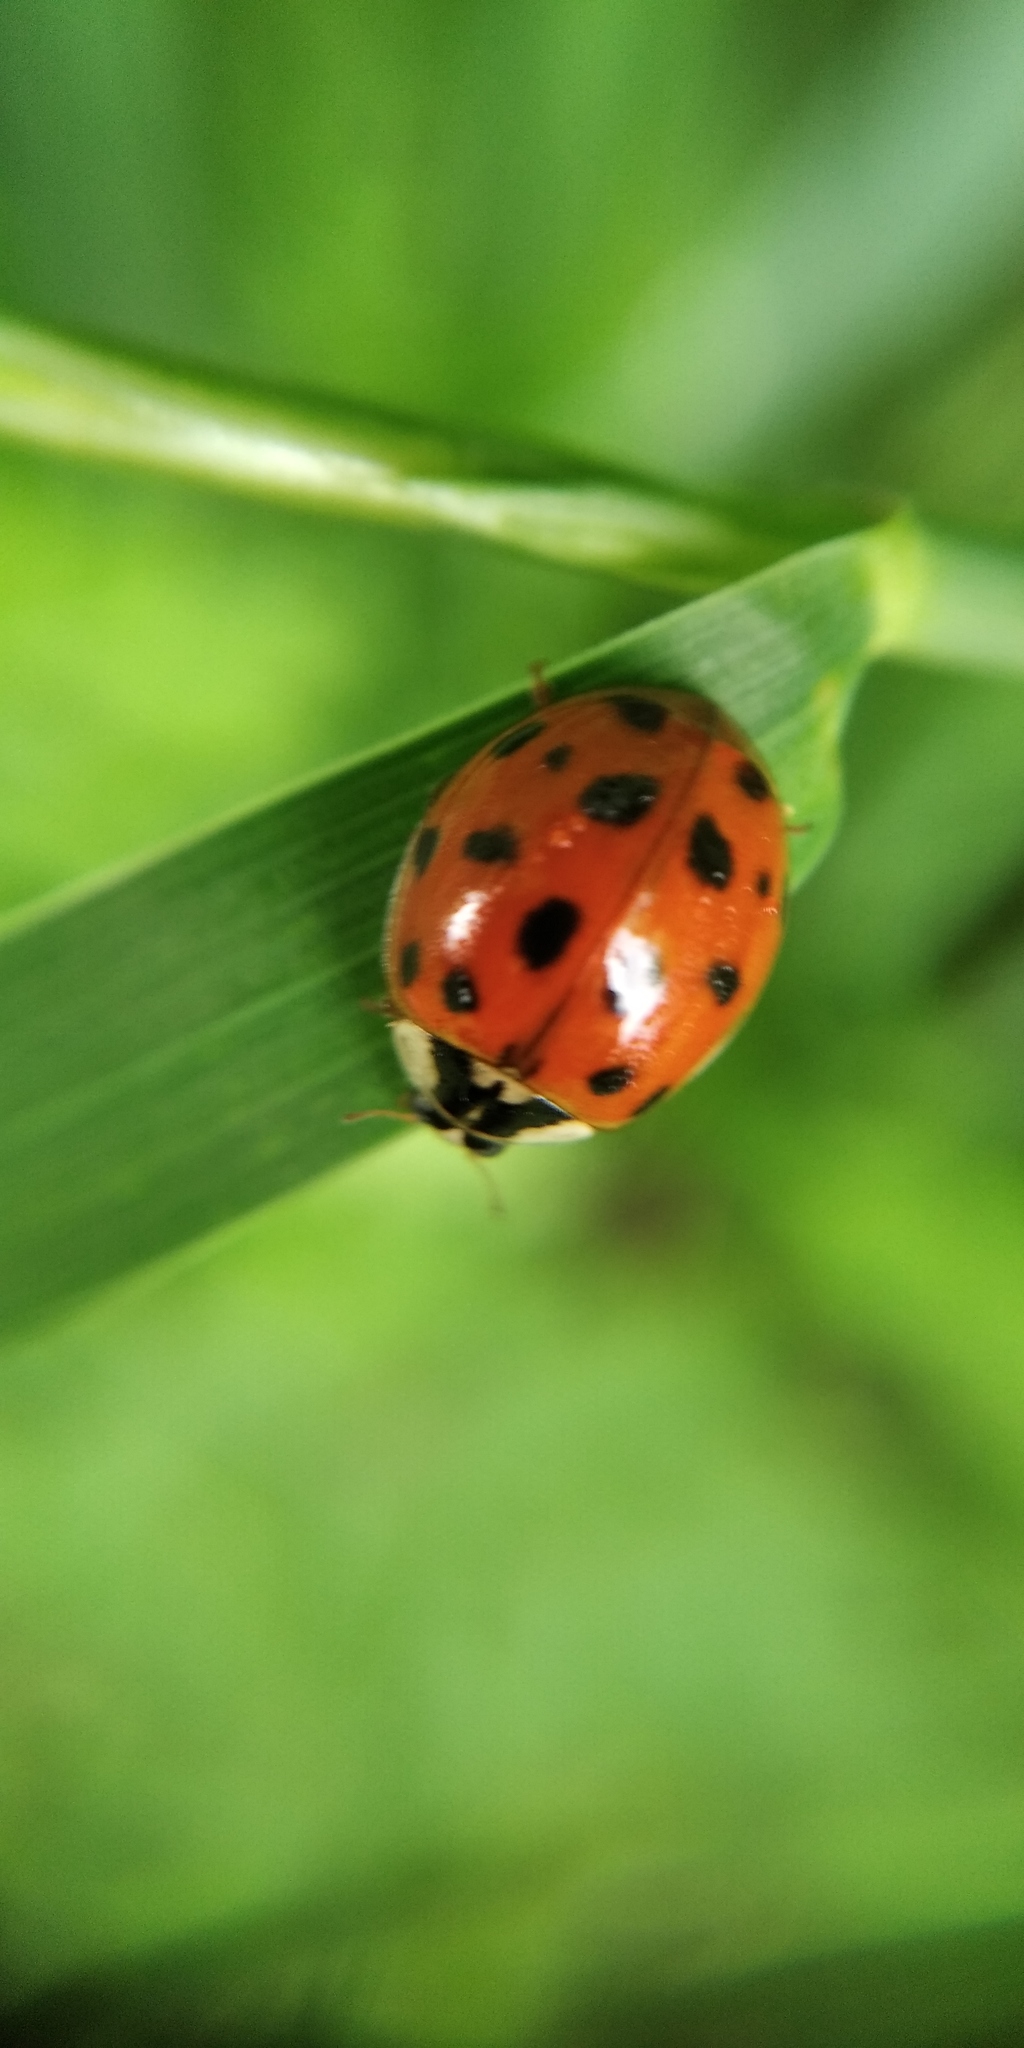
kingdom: Animalia
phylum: Arthropoda
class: Insecta
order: Coleoptera
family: Coccinellidae
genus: Harmonia
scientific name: Harmonia axyridis
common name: Harlequin ladybird
